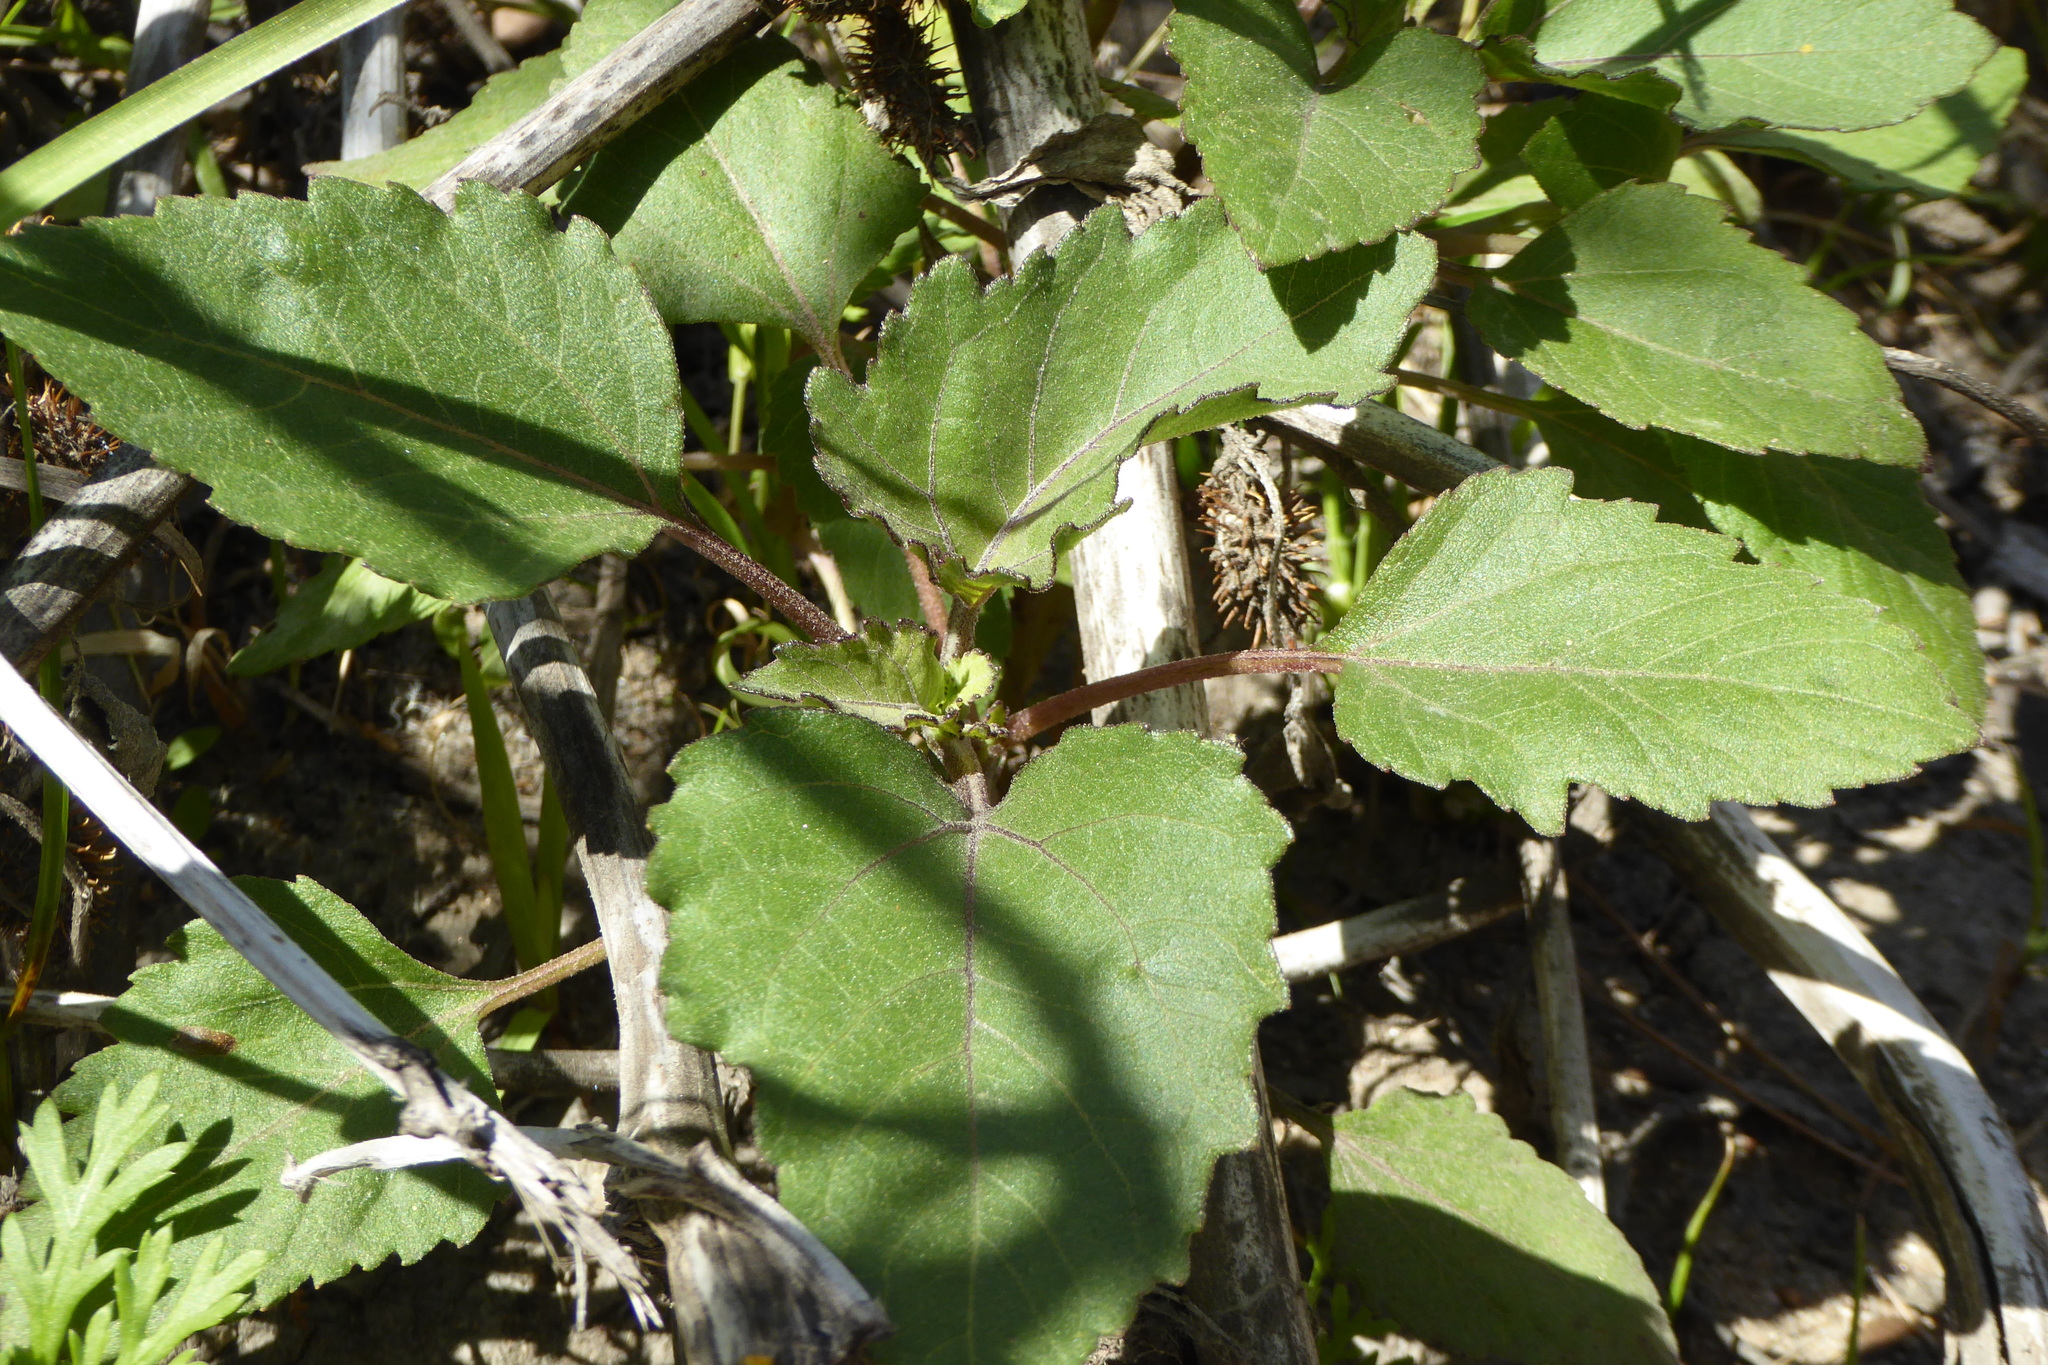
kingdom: Plantae
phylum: Tracheophyta
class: Magnoliopsida
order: Asterales
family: Asteraceae
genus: Xanthium
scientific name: Xanthium strumarium
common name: Rough cocklebur
